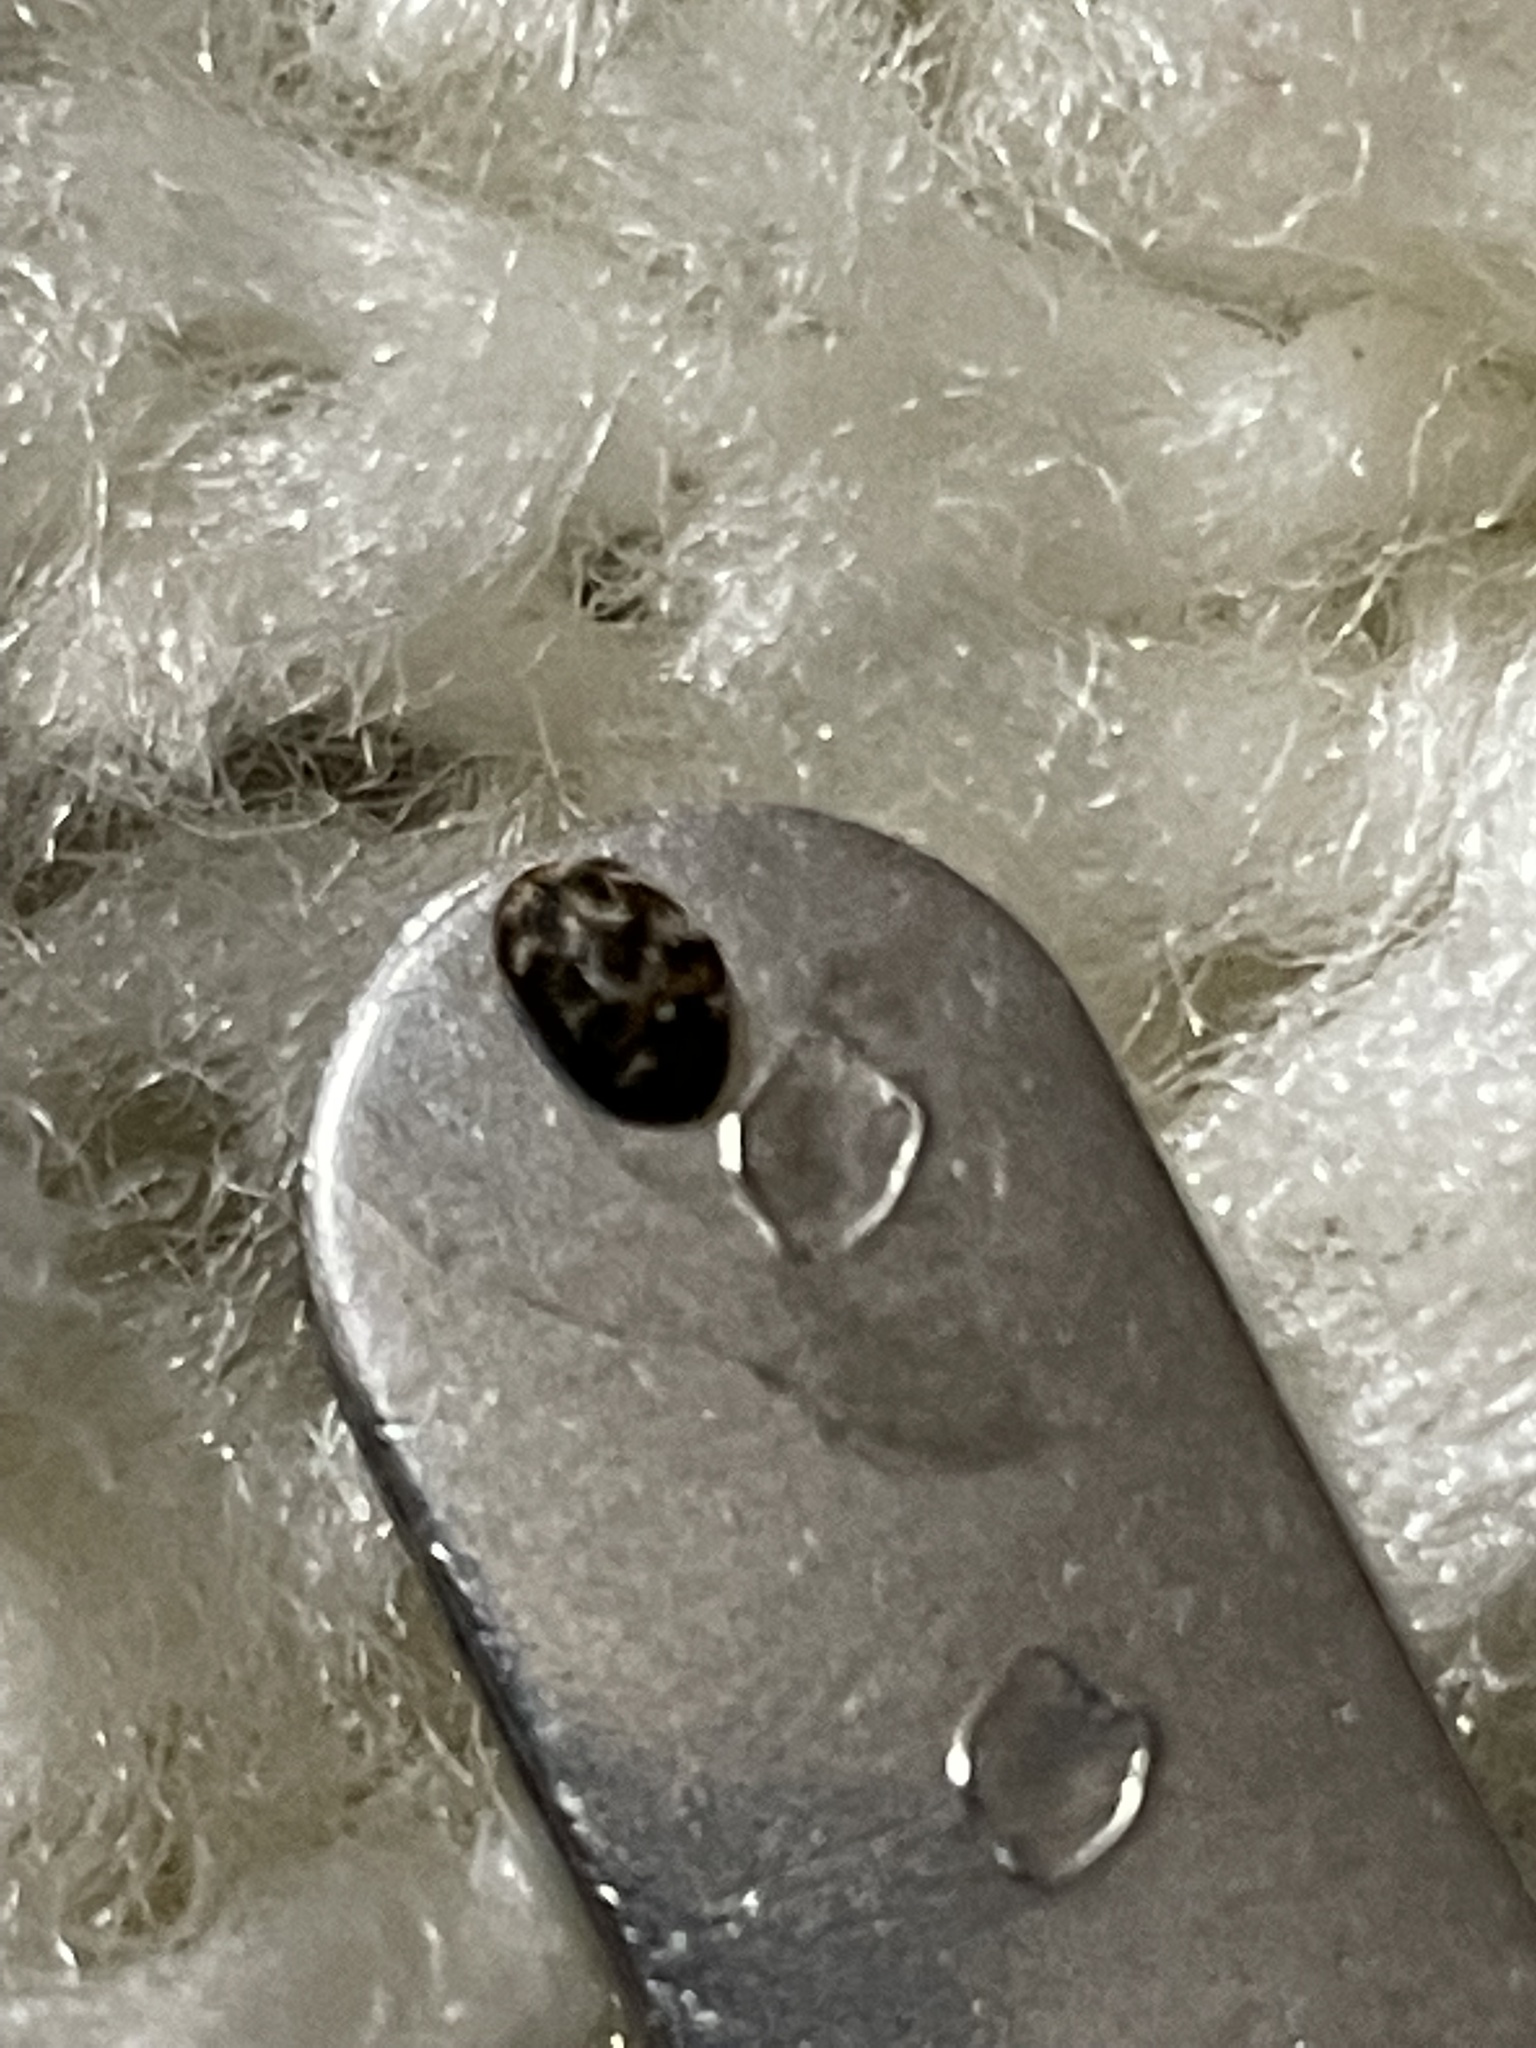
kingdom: Animalia
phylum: Arthropoda
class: Insecta
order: Coleoptera
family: Dermestidae
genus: Anthrenus
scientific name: Anthrenus verbasci
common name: Varied carpet beetle
